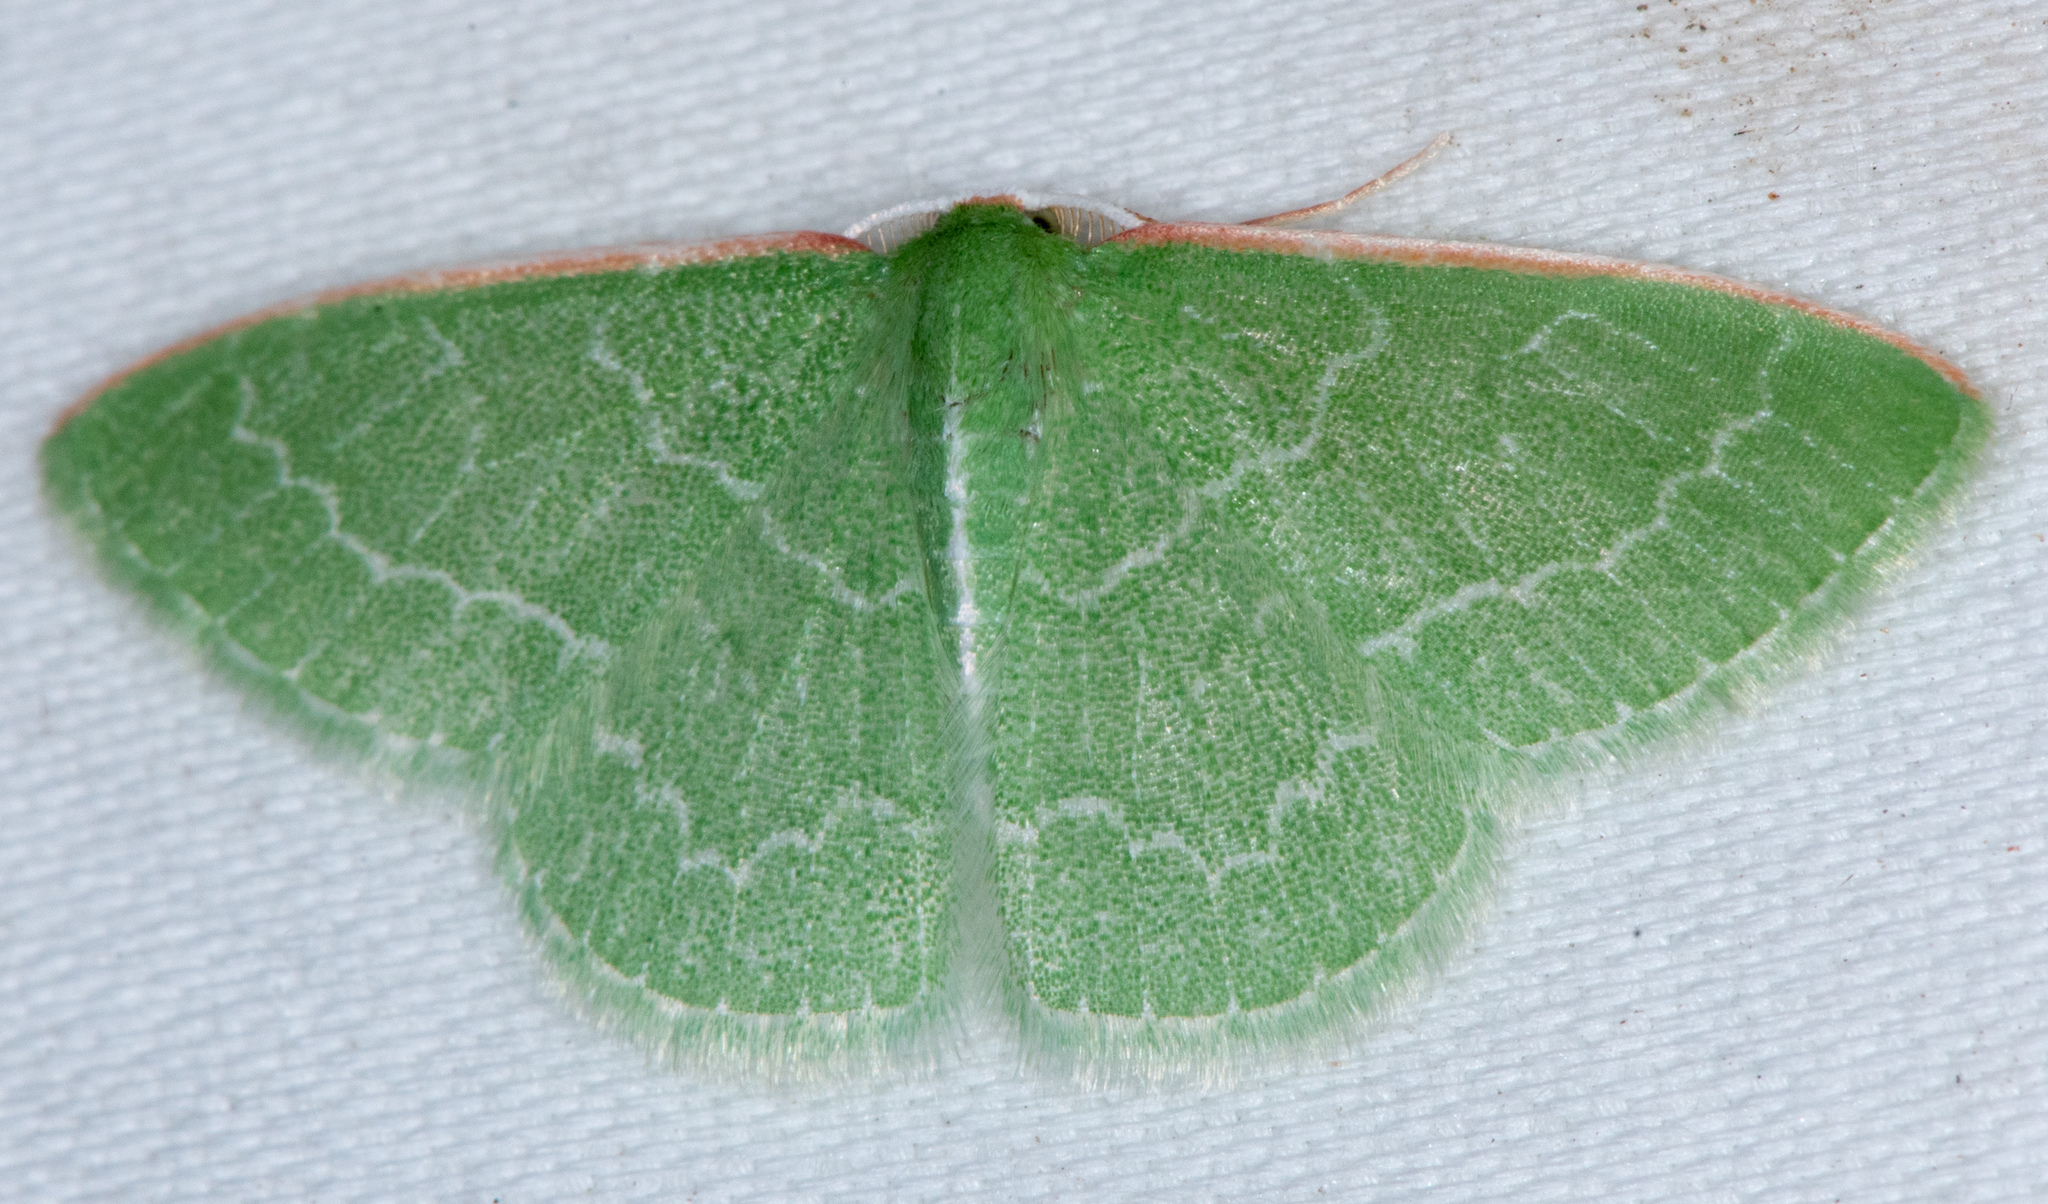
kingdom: Animalia
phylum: Arthropoda
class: Insecta
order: Lepidoptera
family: Geometridae
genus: Synchlora
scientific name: Synchlora aerata
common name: Wavy-lined emerald
